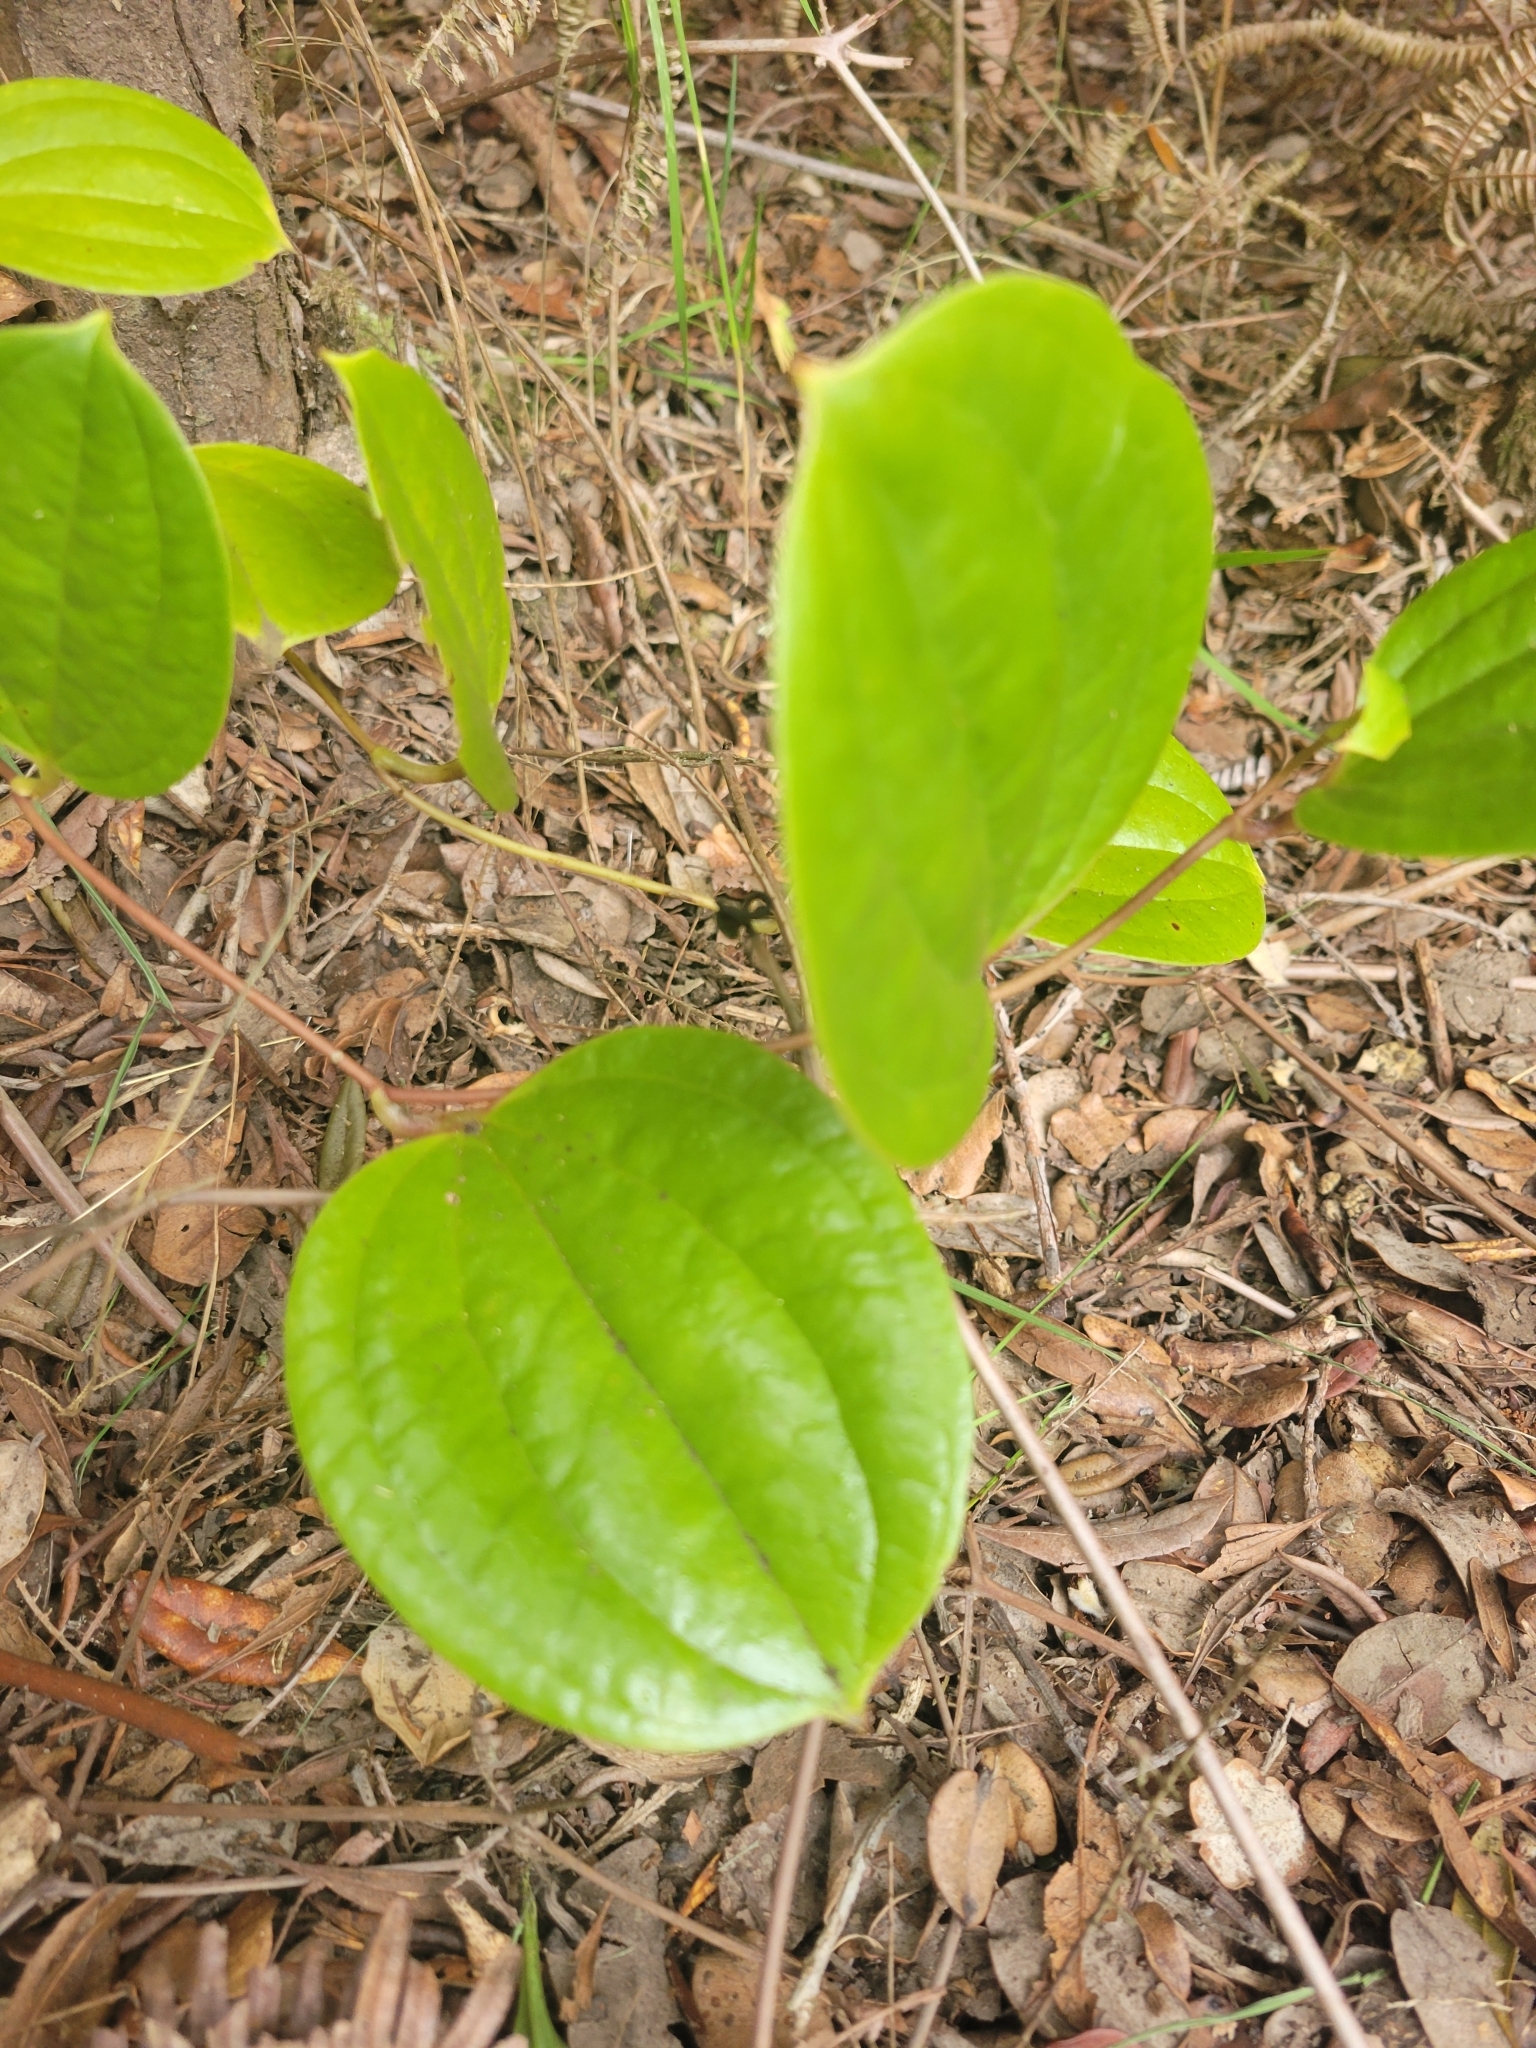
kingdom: Plantae
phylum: Tracheophyta
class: Liliopsida
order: Liliales
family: Smilacaceae
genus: Smilax
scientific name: Smilax melastomifolia
